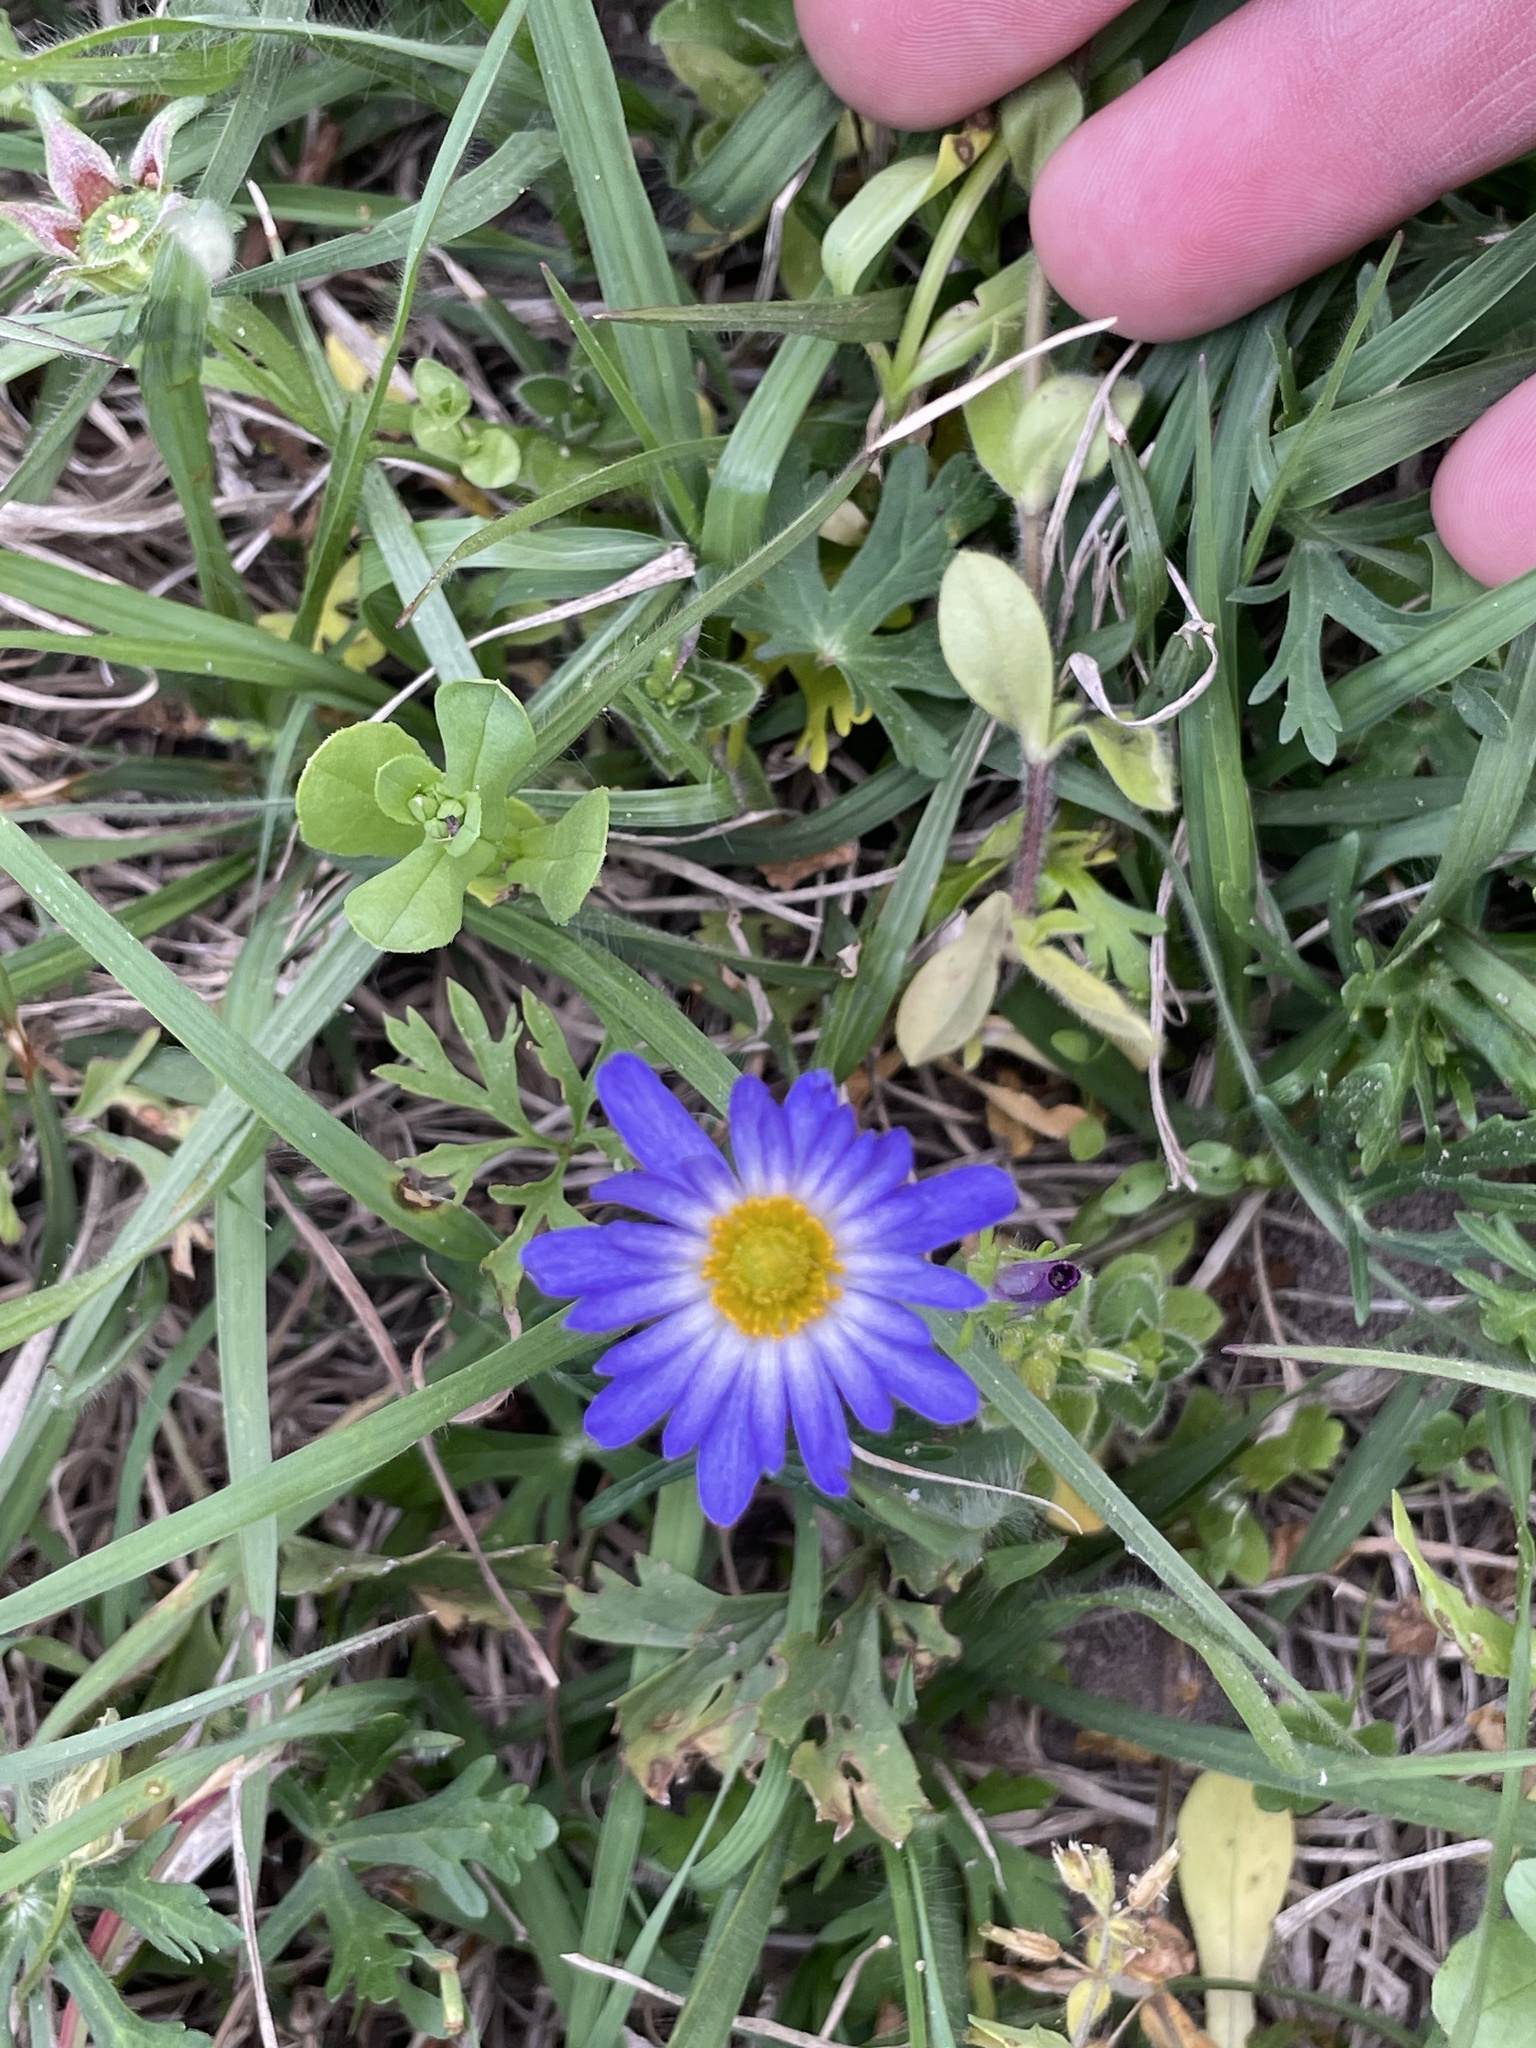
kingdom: Plantae
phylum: Tracheophyta
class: Magnoliopsida
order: Ranunculales
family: Ranunculaceae
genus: Anemone
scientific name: Anemone caroliniana
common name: Carolina anemone
